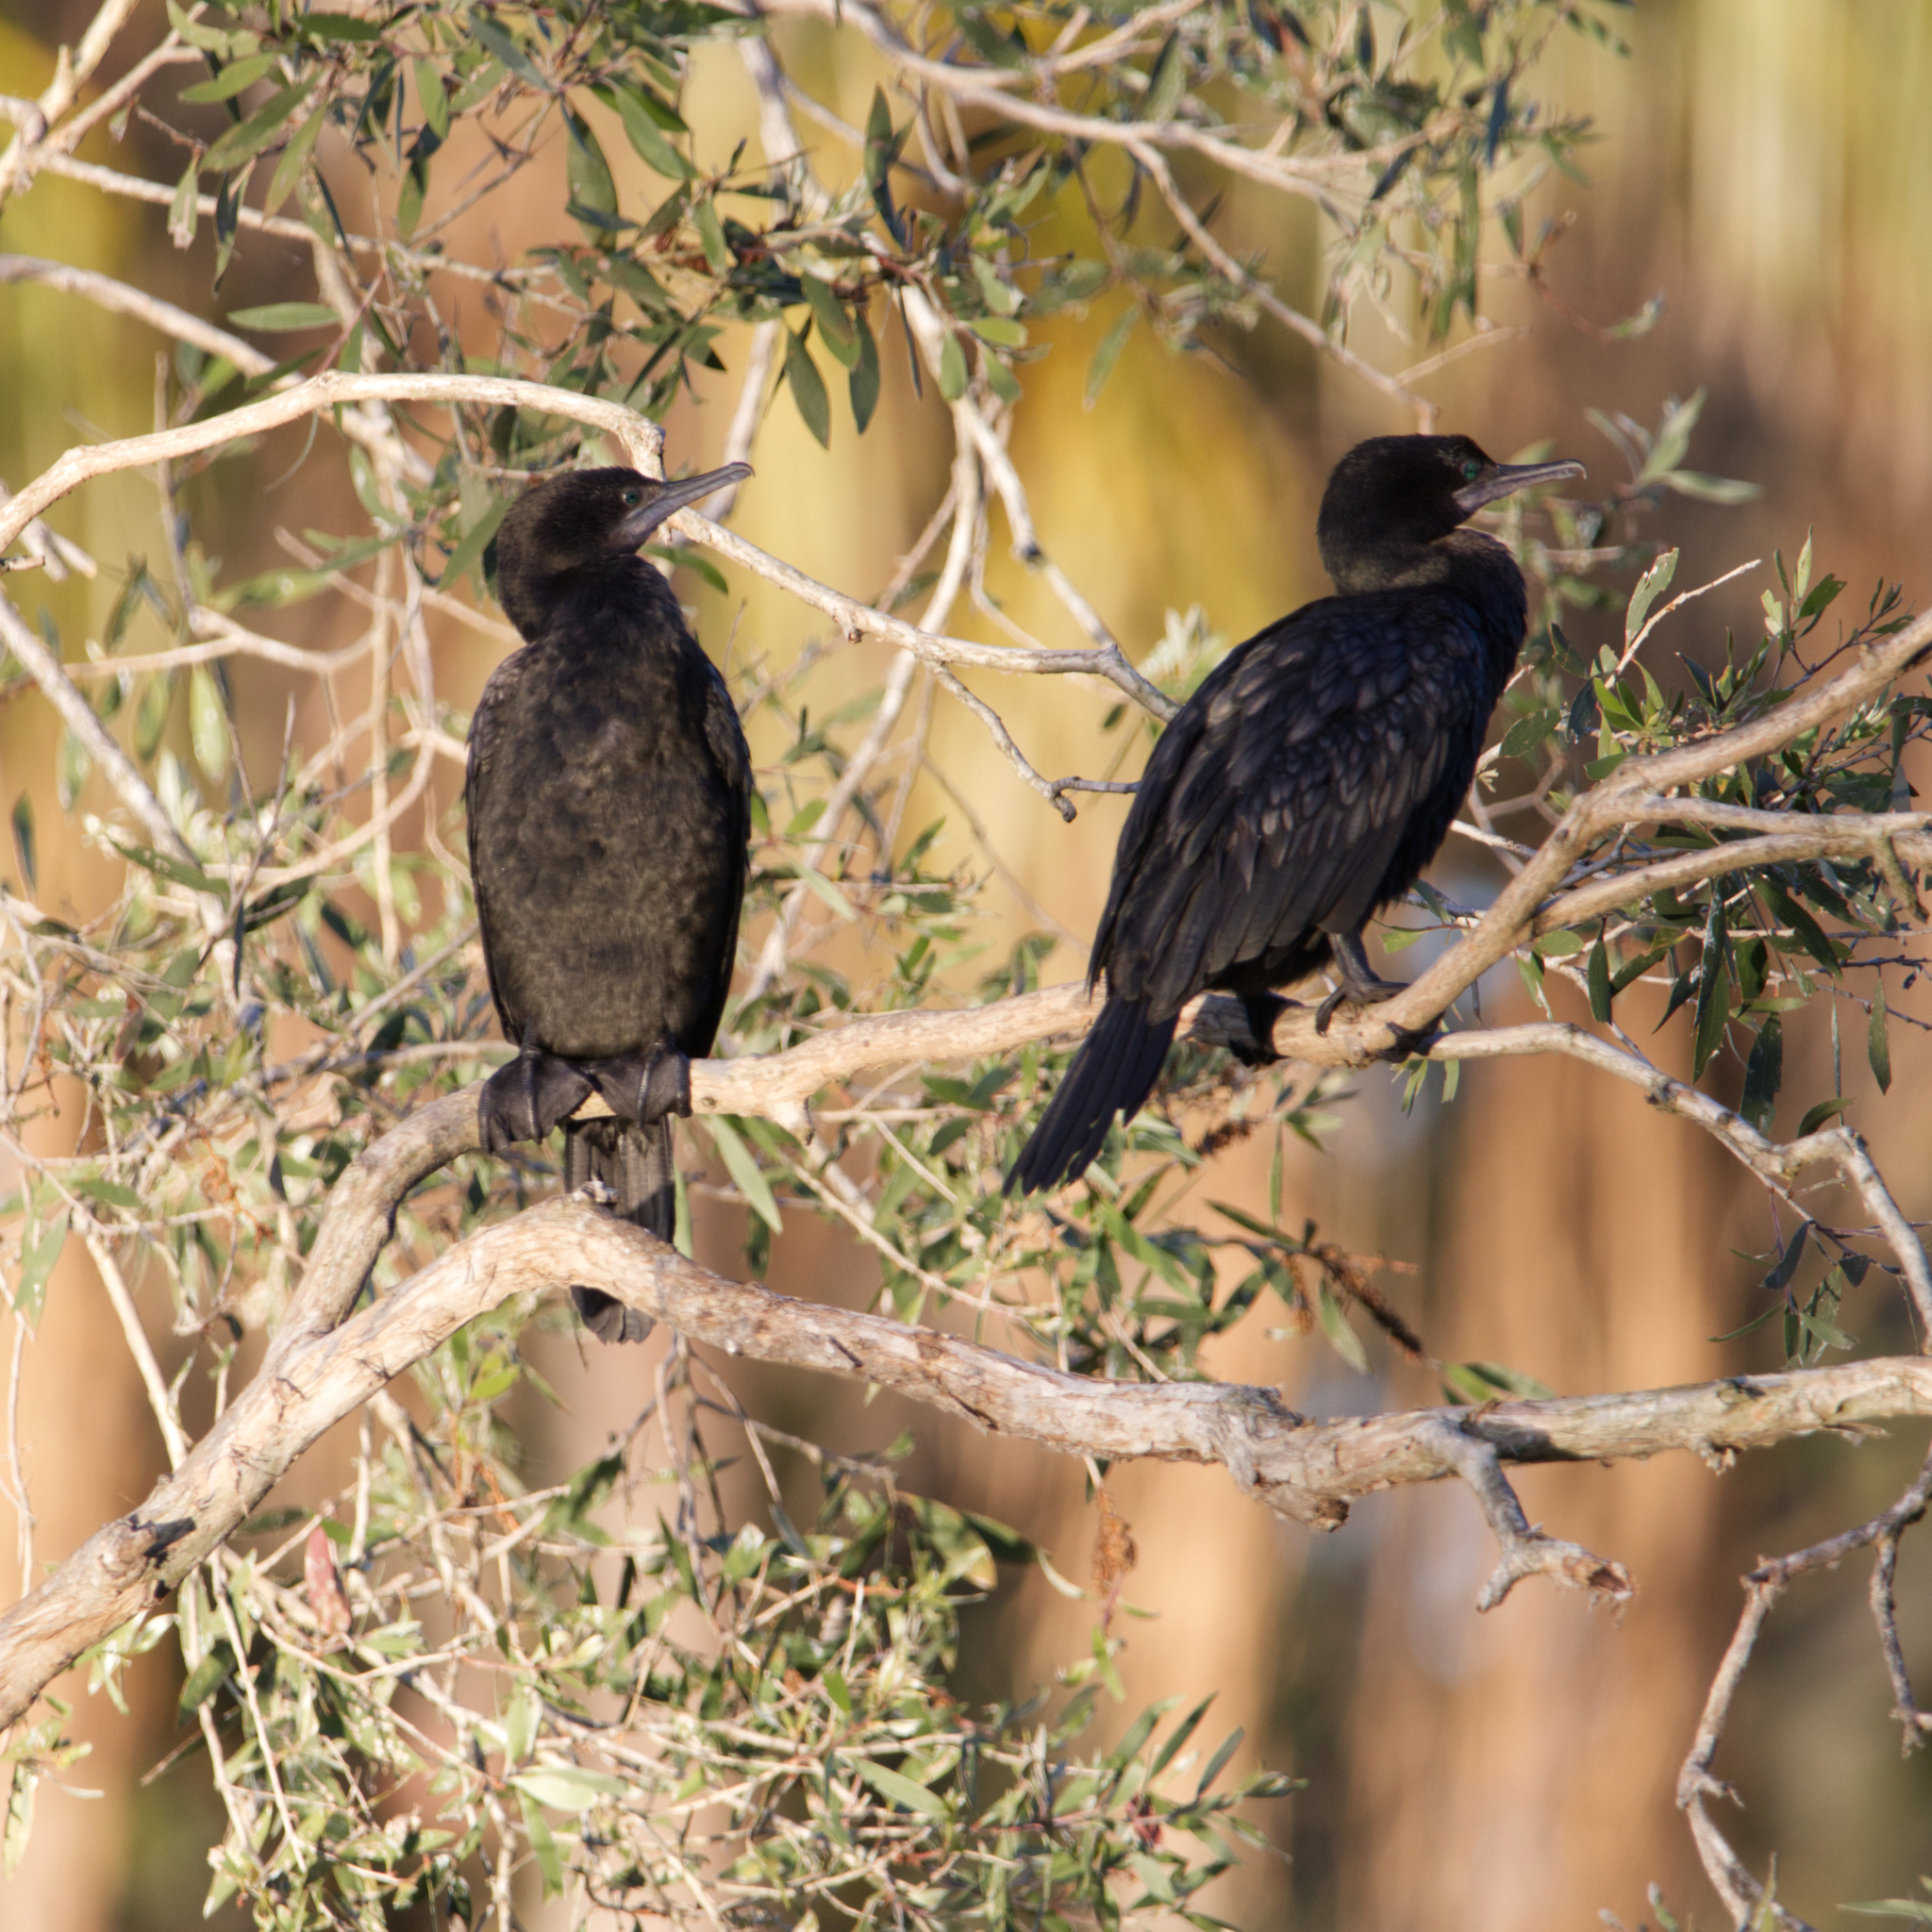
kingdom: Animalia
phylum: Chordata
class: Aves
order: Suliformes
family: Phalacrocoracidae
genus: Phalacrocorax
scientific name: Phalacrocorax sulcirostris
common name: Little black cormorant
